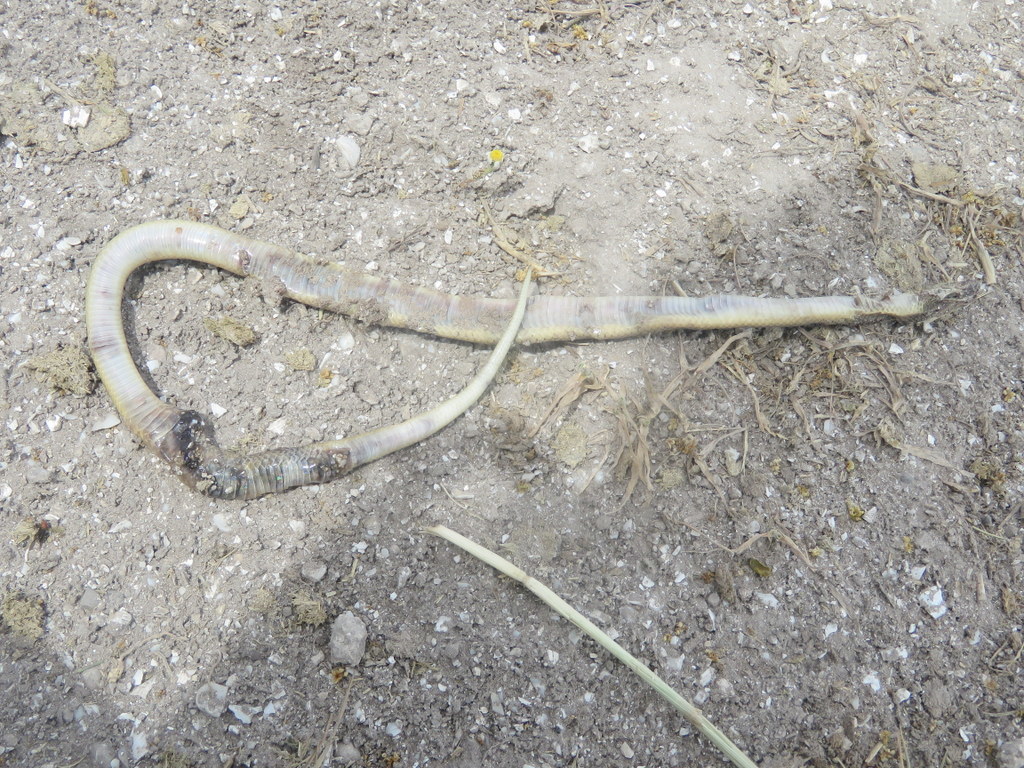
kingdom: Animalia
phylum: Chordata
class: Squamata
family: Colubridae
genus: Paraphimophis
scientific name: Paraphimophis rusticus
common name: Culebra
